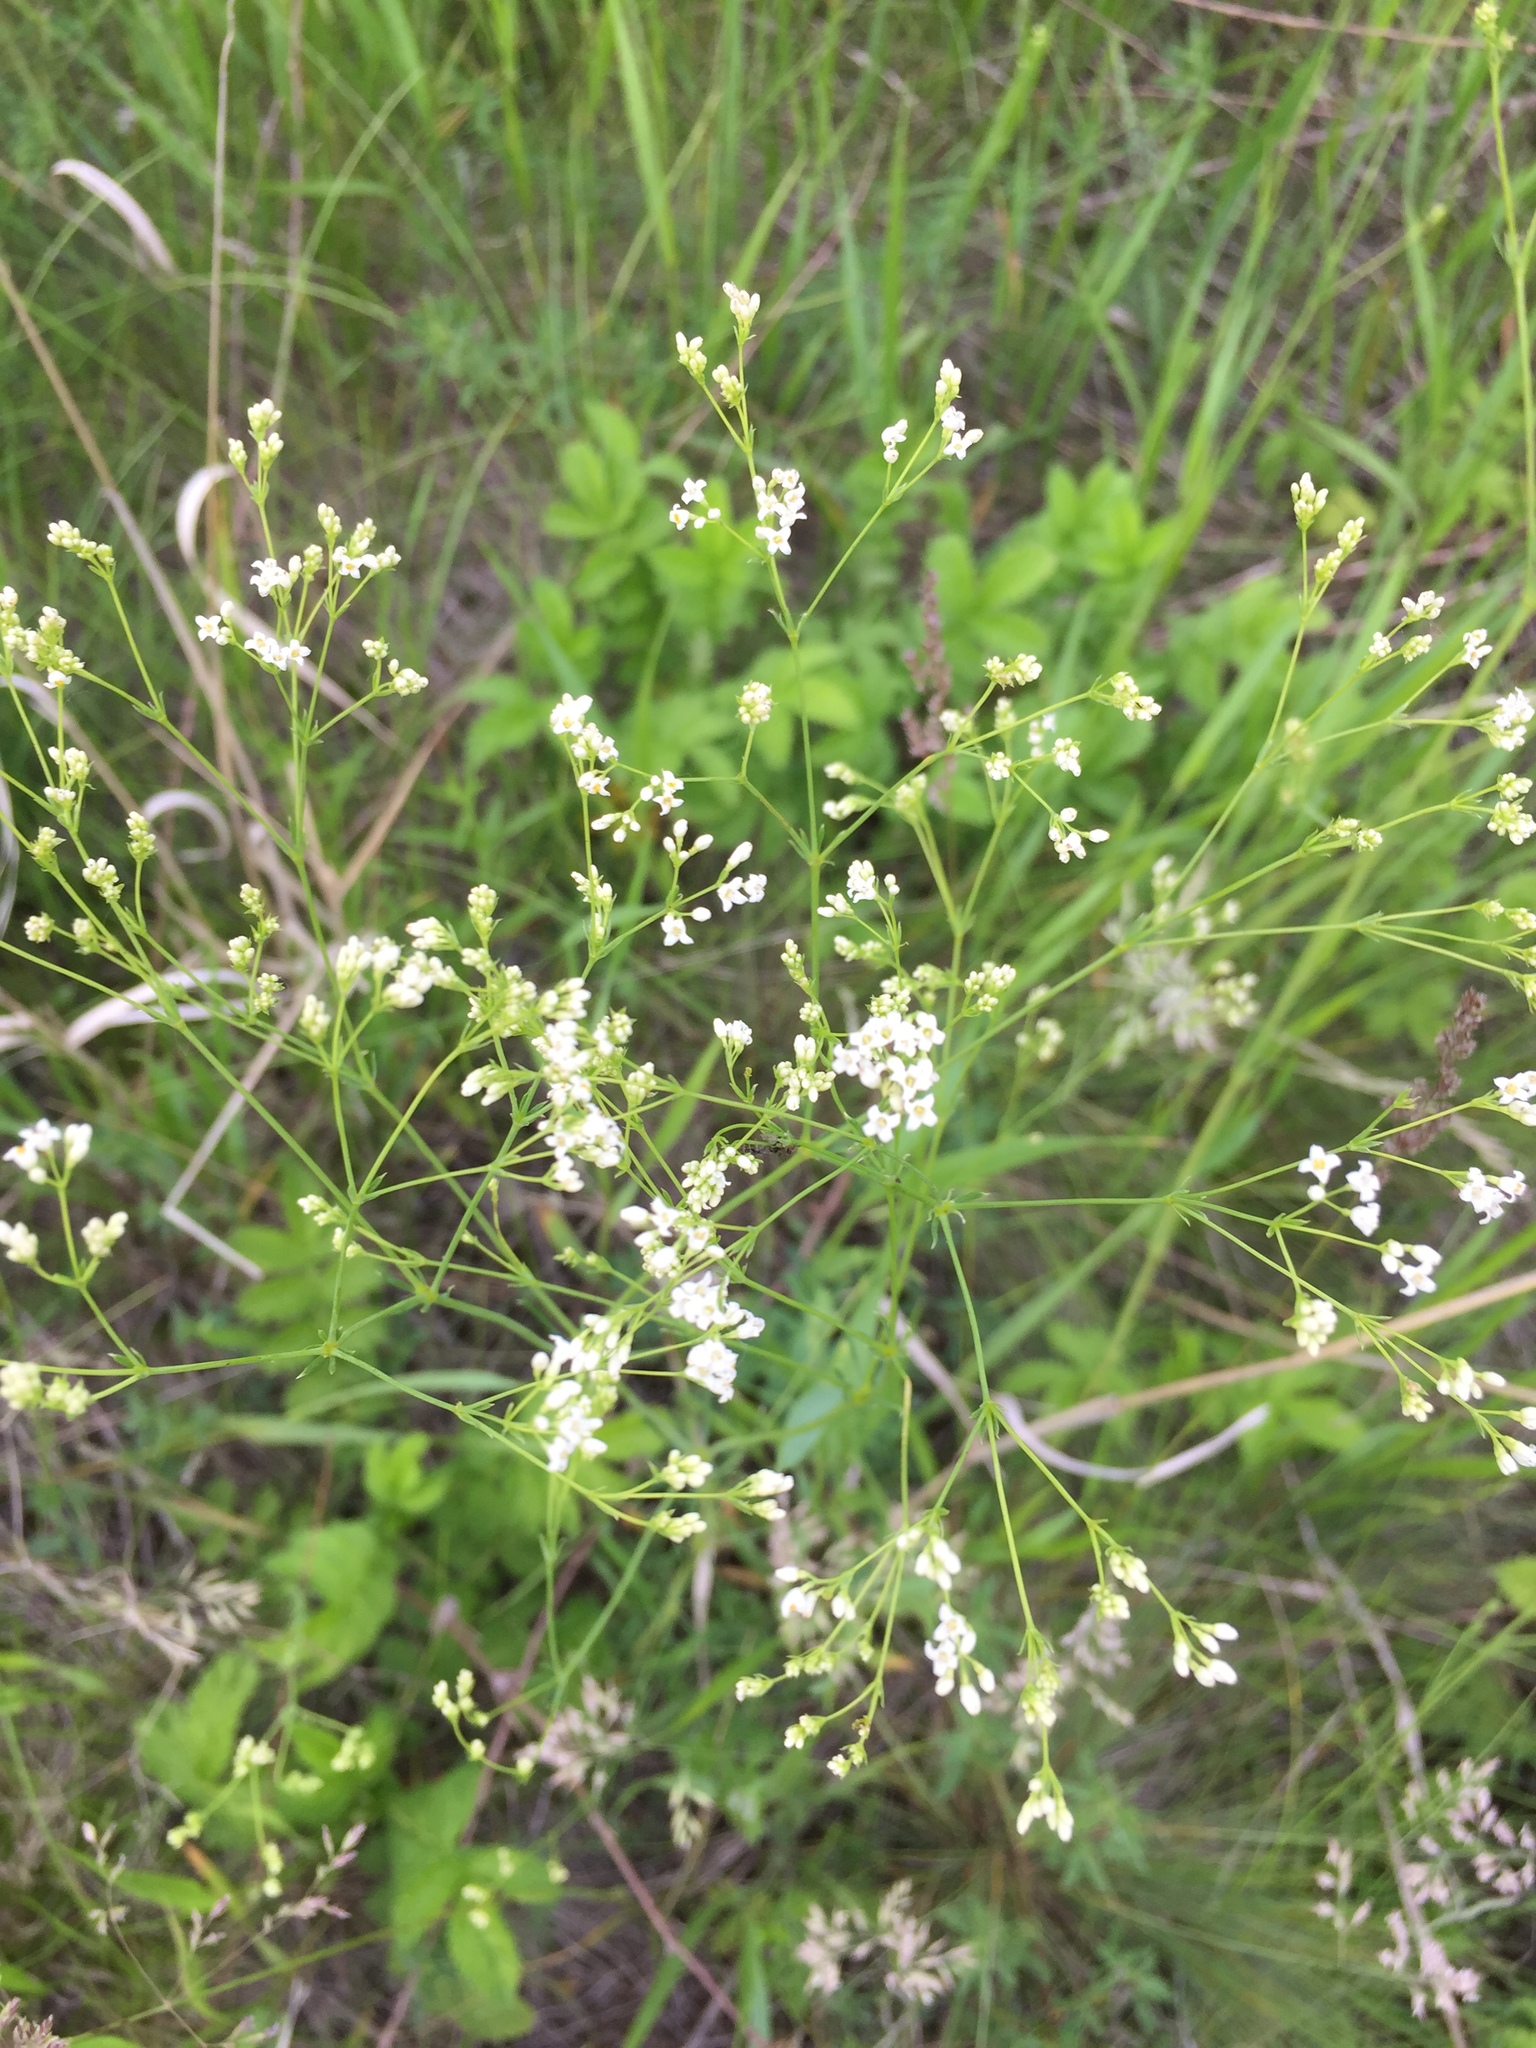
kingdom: Plantae
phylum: Tracheophyta
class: Magnoliopsida
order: Gentianales
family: Rubiaceae
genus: Galium
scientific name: Galium octonarium
